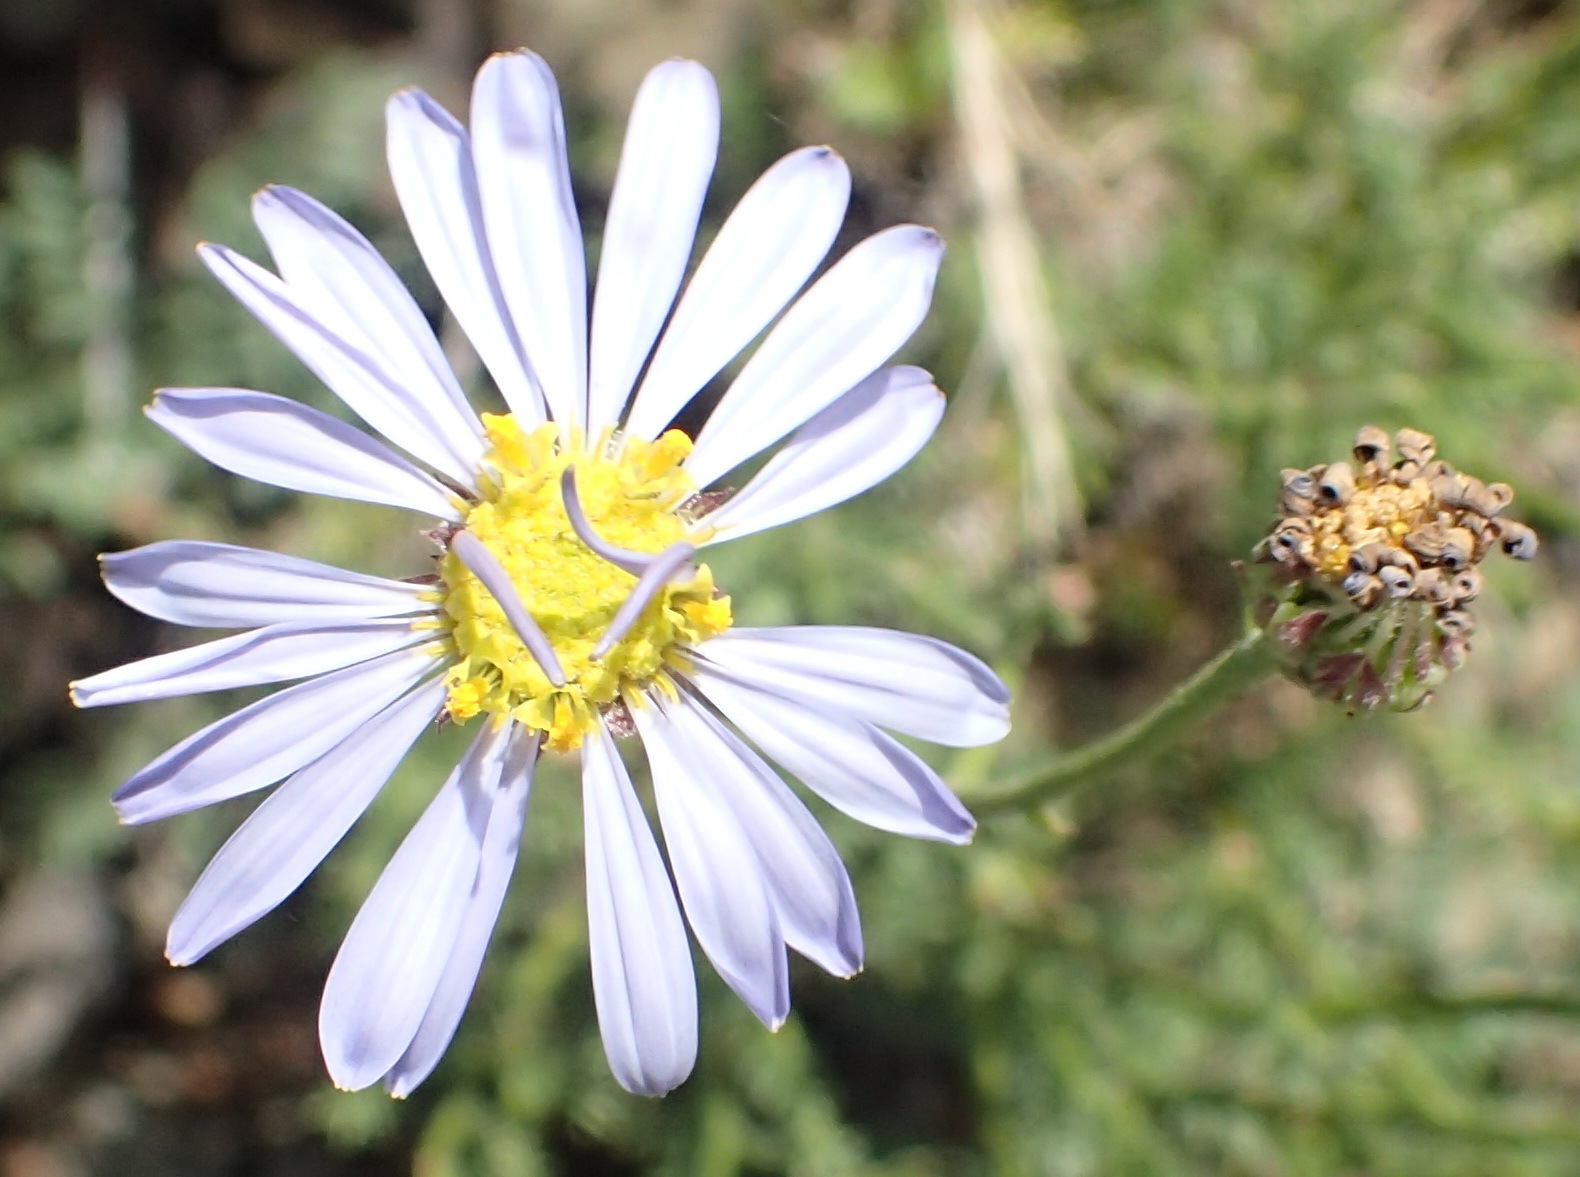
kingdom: Plantae
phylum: Tracheophyta
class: Magnoliopsida
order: Asterales
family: Asteraceae
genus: Garuleum
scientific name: Garuleum bipinnatum
